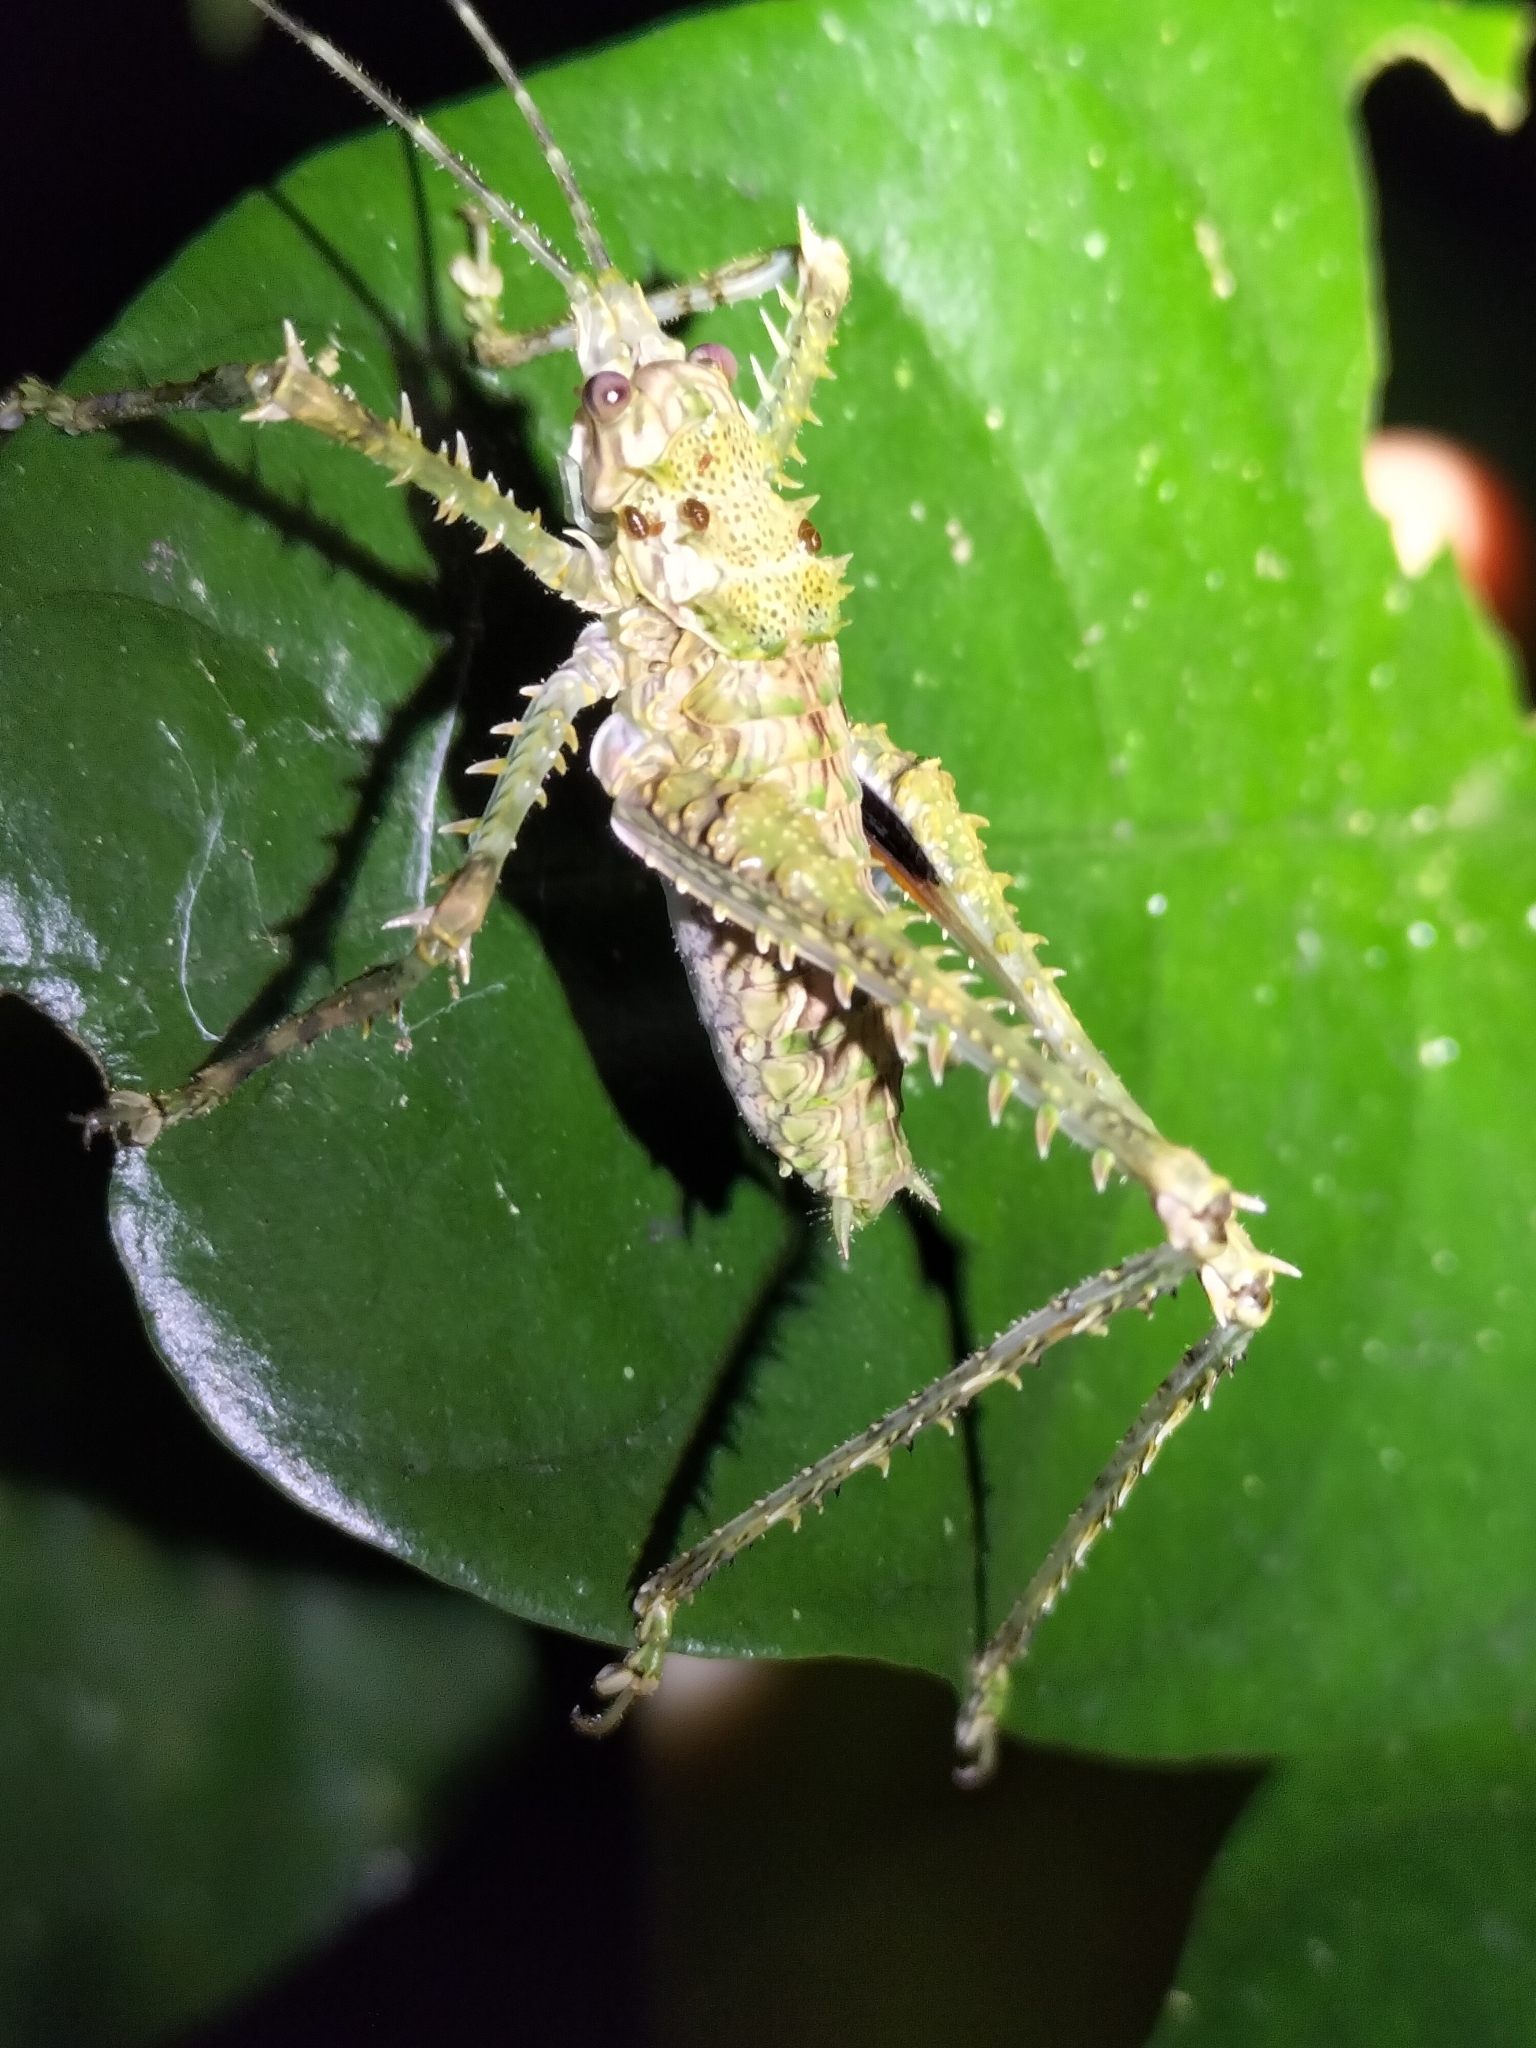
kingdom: Animalia
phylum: Arthropoda
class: Insecta
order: Orthoptera
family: Tettigoniidae
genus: Phricta
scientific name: Phricta spinosa
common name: Giant spiny forest katydid
